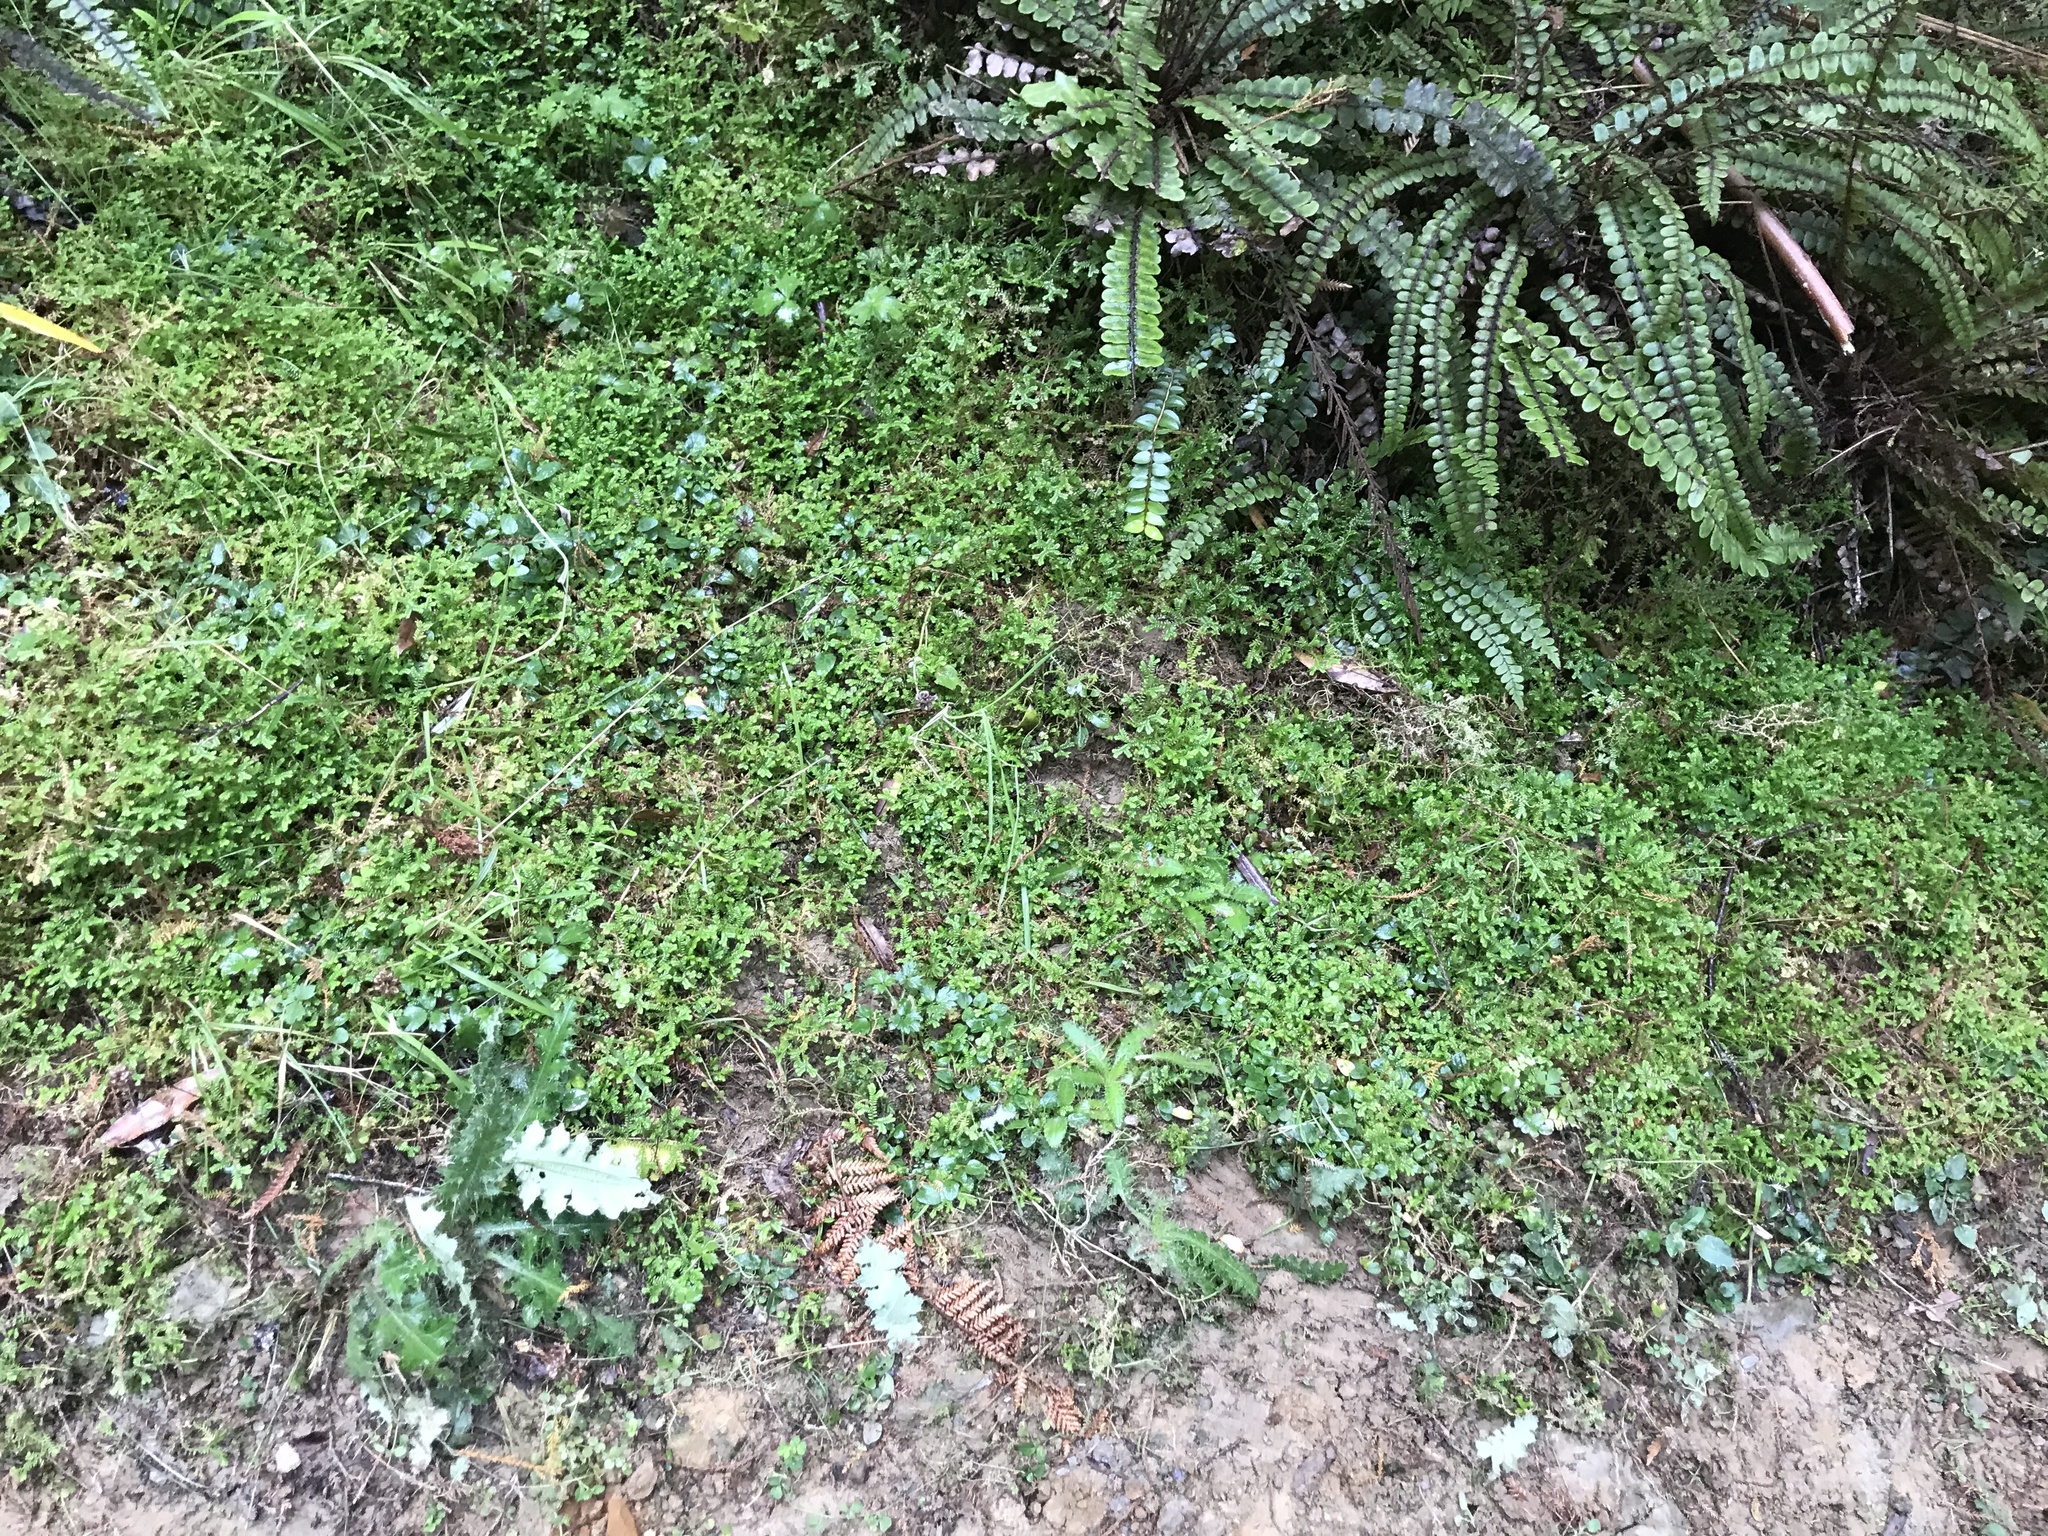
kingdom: Plantae
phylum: Tracheophyta
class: Lycopodiopsida
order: Selaginellales
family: Selaginellaceae
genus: Selaginella
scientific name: Selaginella kraussiana
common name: Krauss' spikemoss
